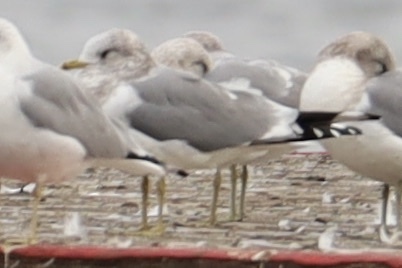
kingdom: Animalia
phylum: Chordata
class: Aves
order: Charadriiformes
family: Laridae
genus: Larus
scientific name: Larus brachyrhynchus
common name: Short-billed gull
